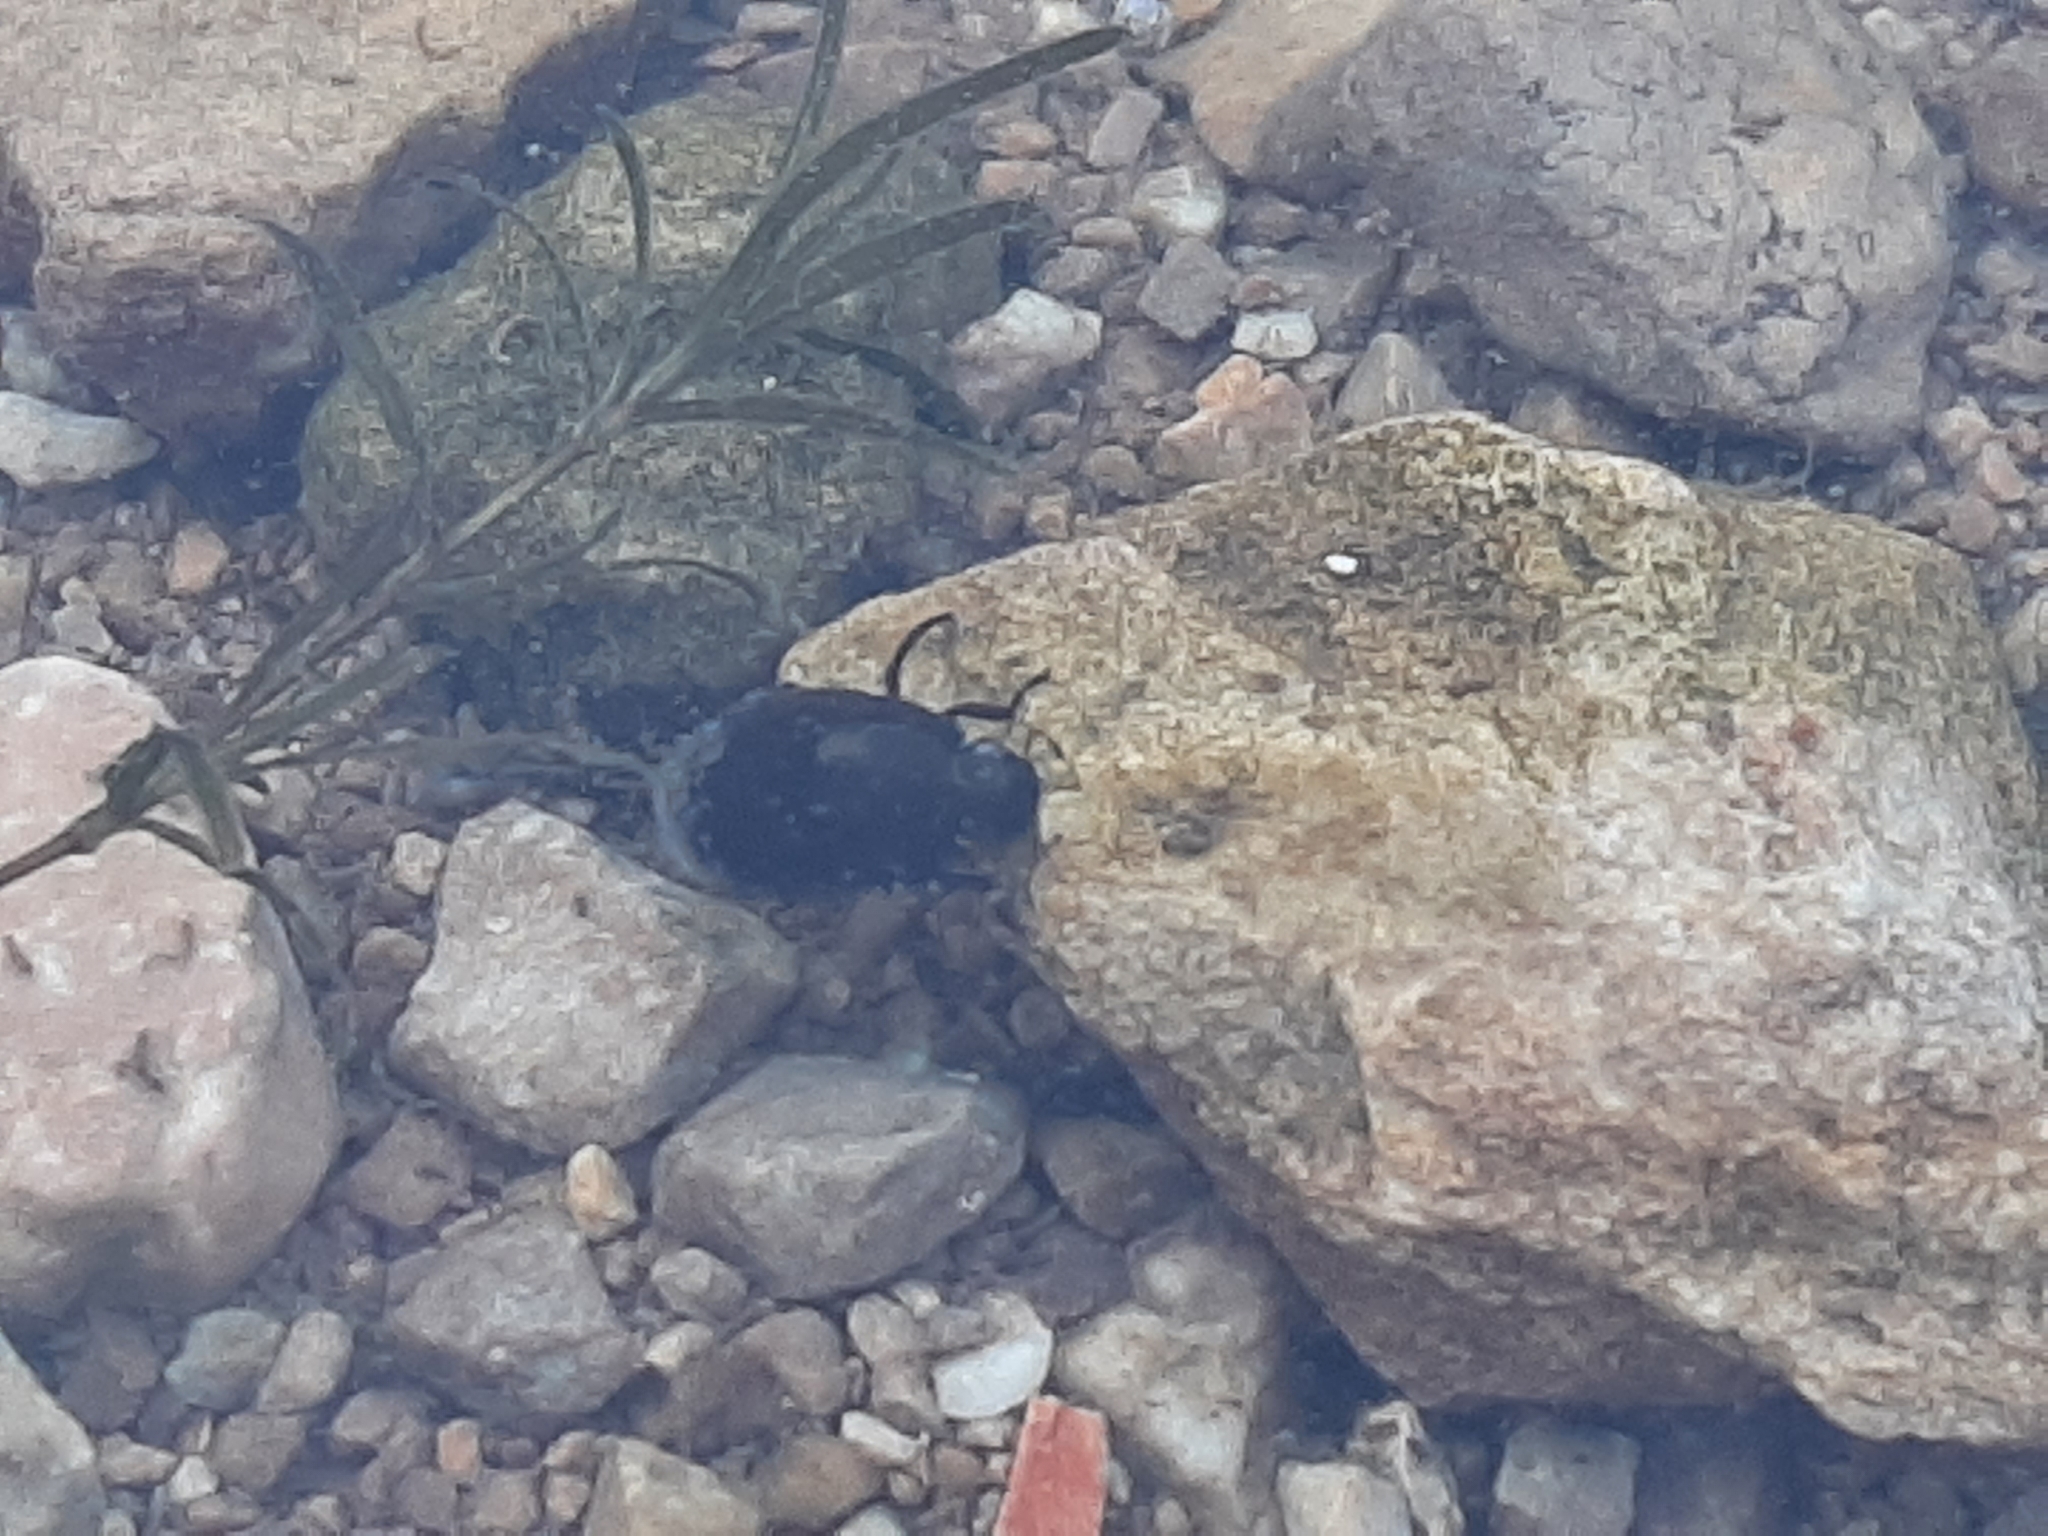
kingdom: Animalia
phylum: Arthropoda
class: Insecta
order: Coleoptera
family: Hydrophilidae
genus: Tropisternus
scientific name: Tropisternus
